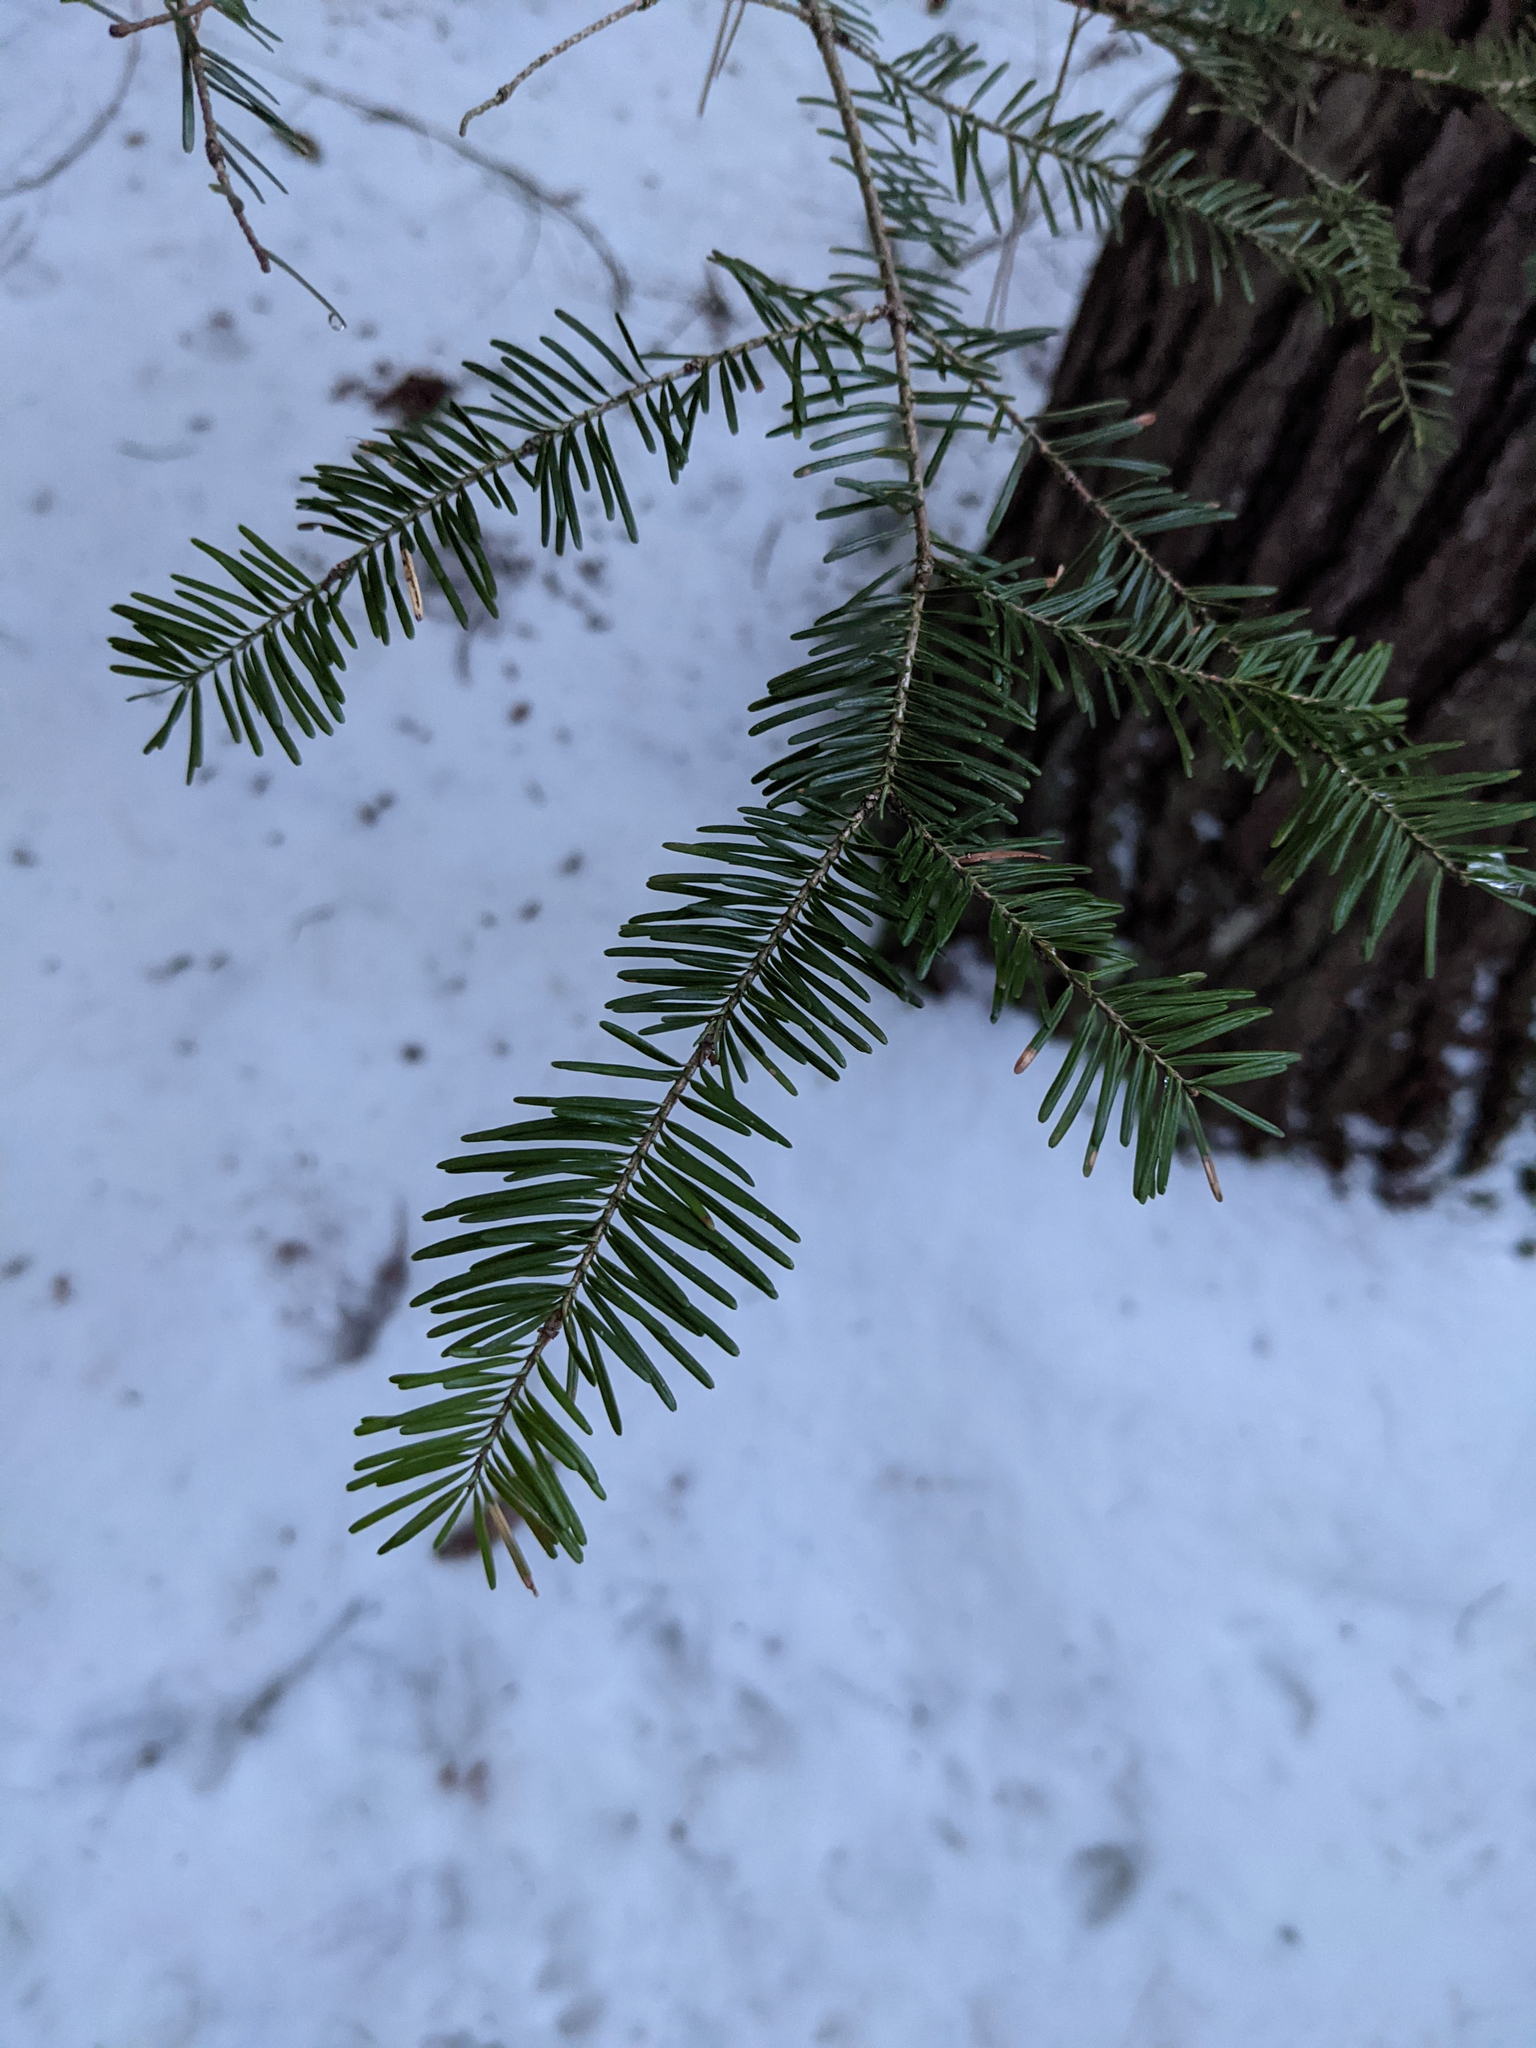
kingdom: Plantae
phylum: Tracheophyta
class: Pinopsida
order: Pinales
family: Pinaceae
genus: Abies
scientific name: Abies balsamea
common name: Balsam fir
